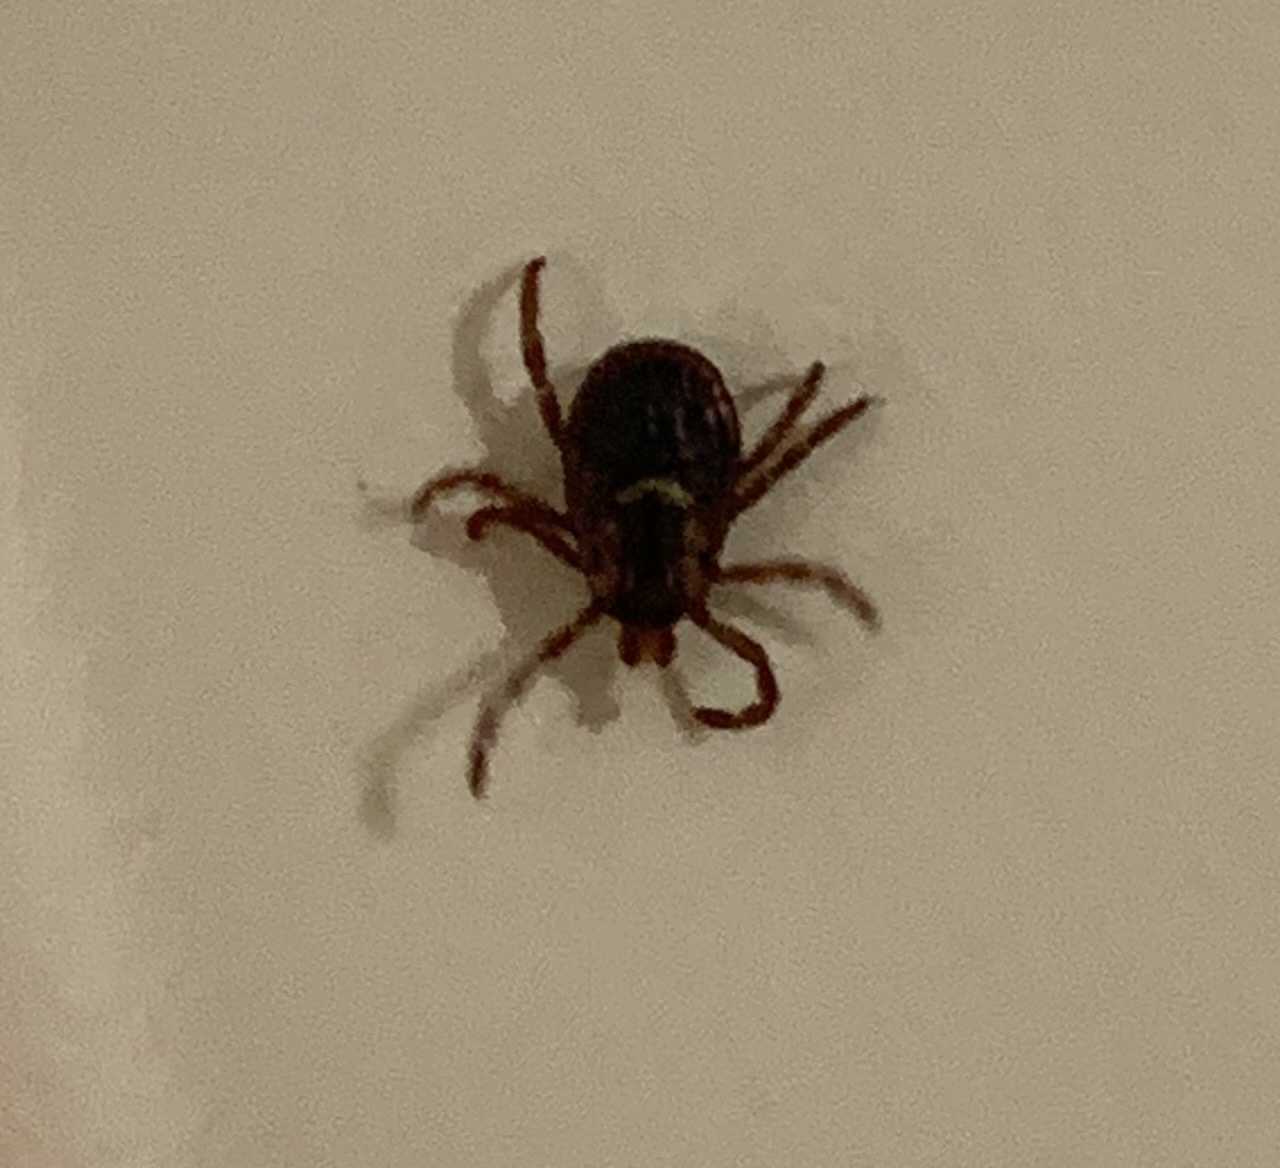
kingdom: Animalia
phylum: Arthropoda
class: Arachnida
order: Ixodida
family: Ixodidae
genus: Dermacentor
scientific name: Dermacentor variabilis
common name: American dog tick
